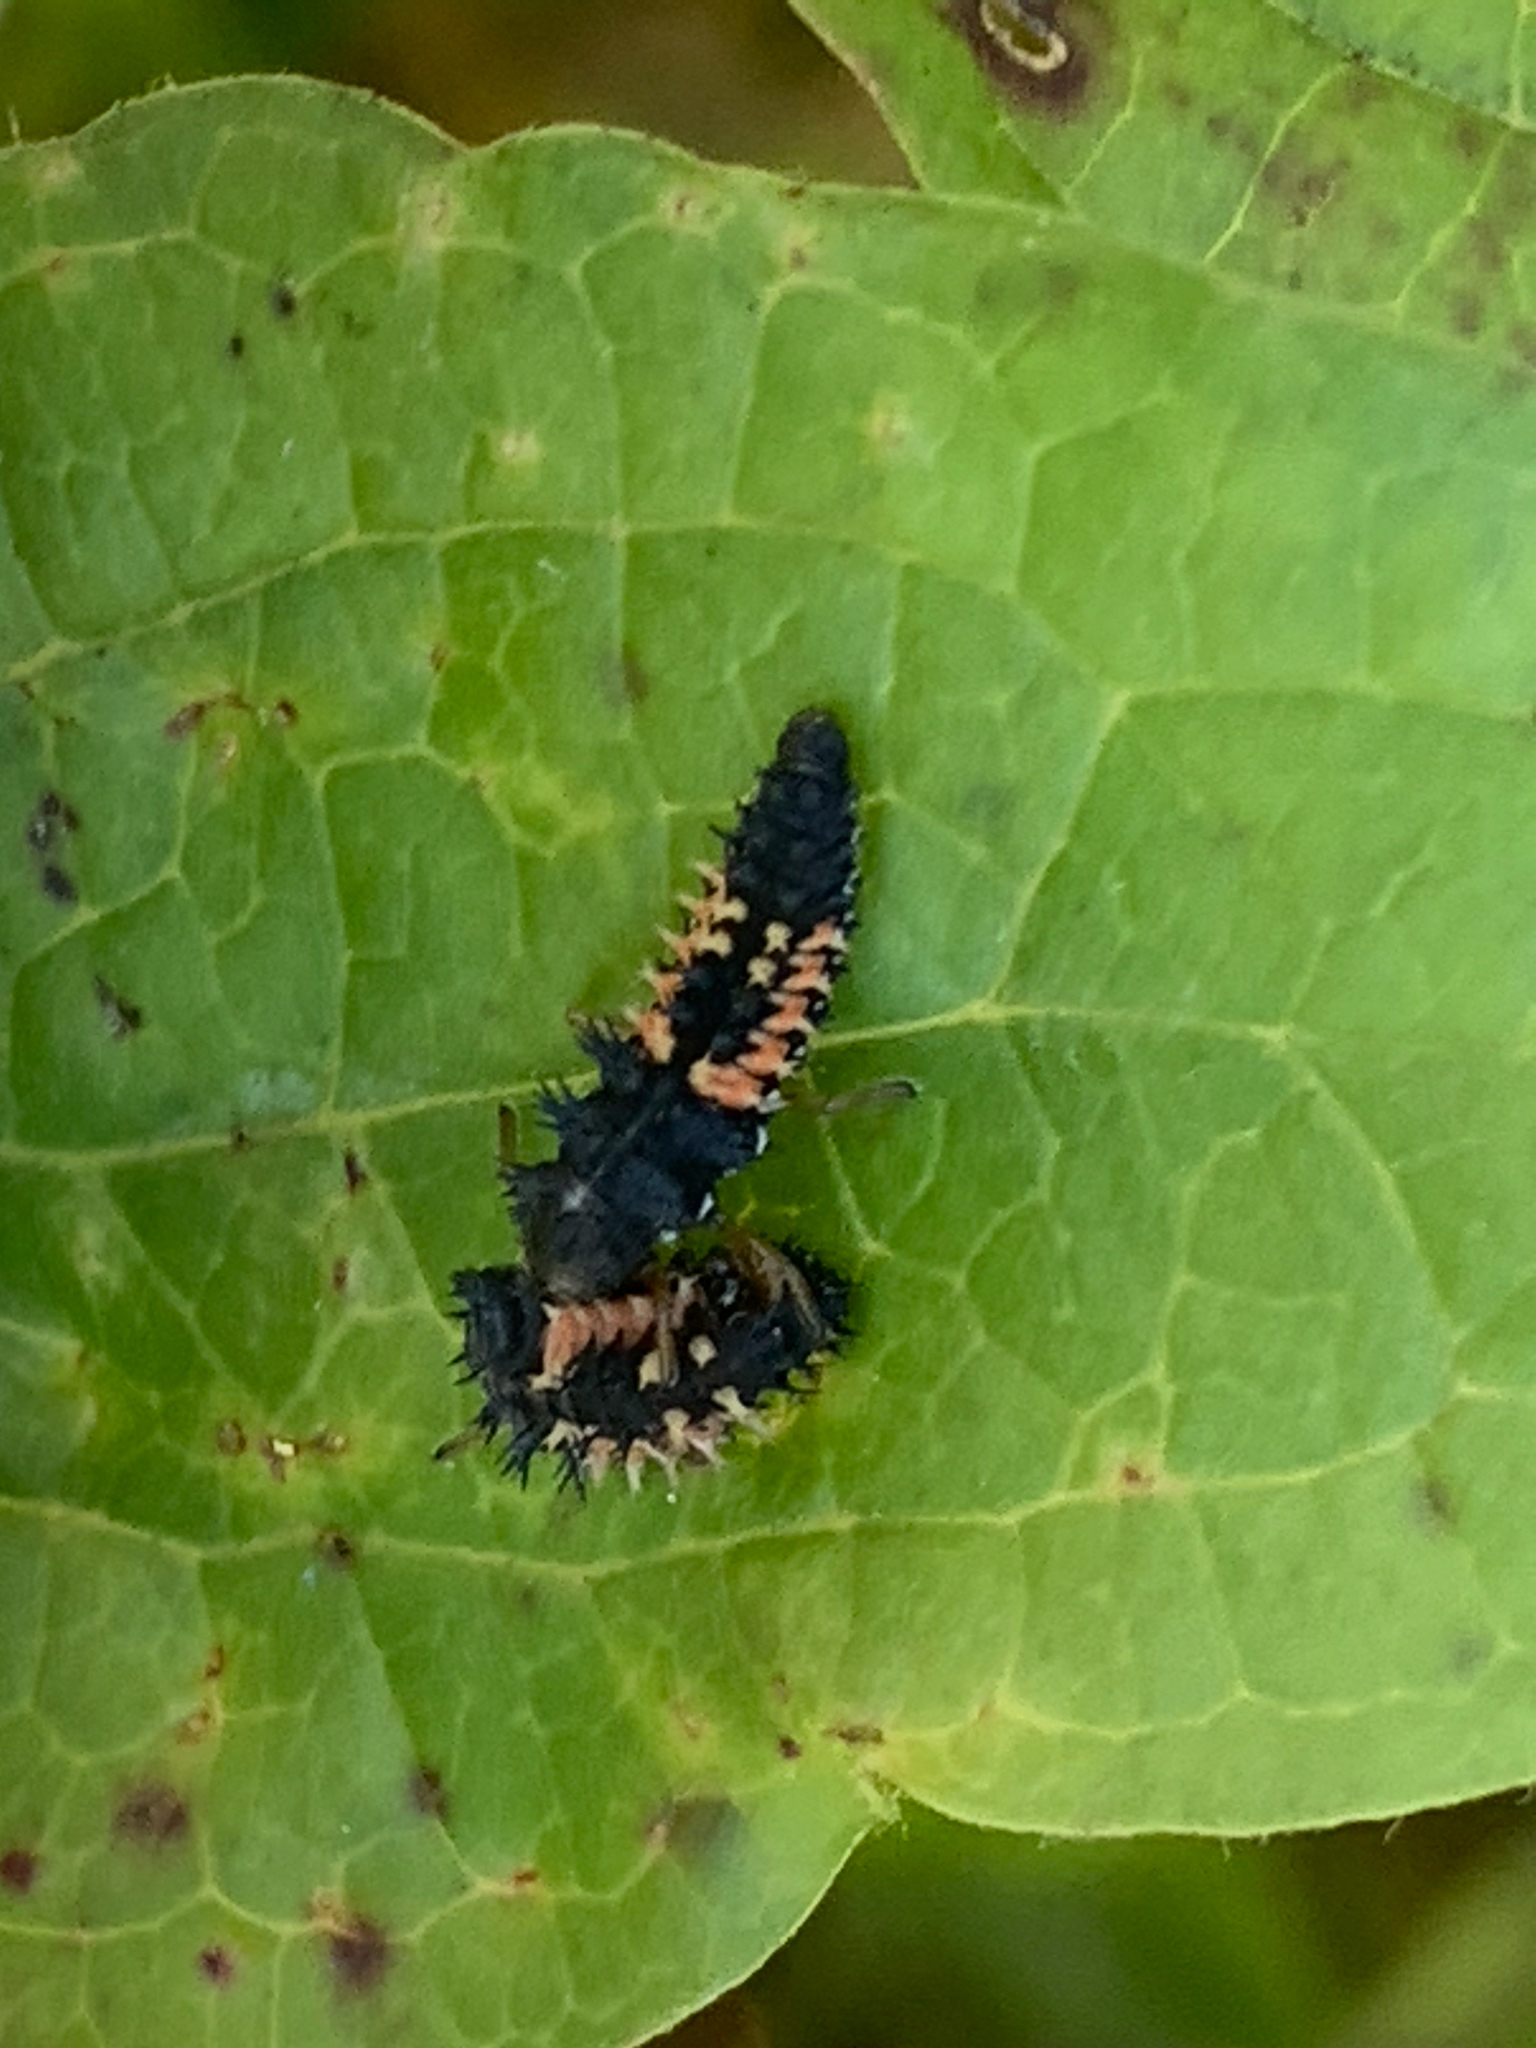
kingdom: Animalia
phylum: Arthropoda
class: Insecta
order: Coleoptera
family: Coccinellidae
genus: Harmonia
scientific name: Harmonia axyridis
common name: Harlequin ladybird
